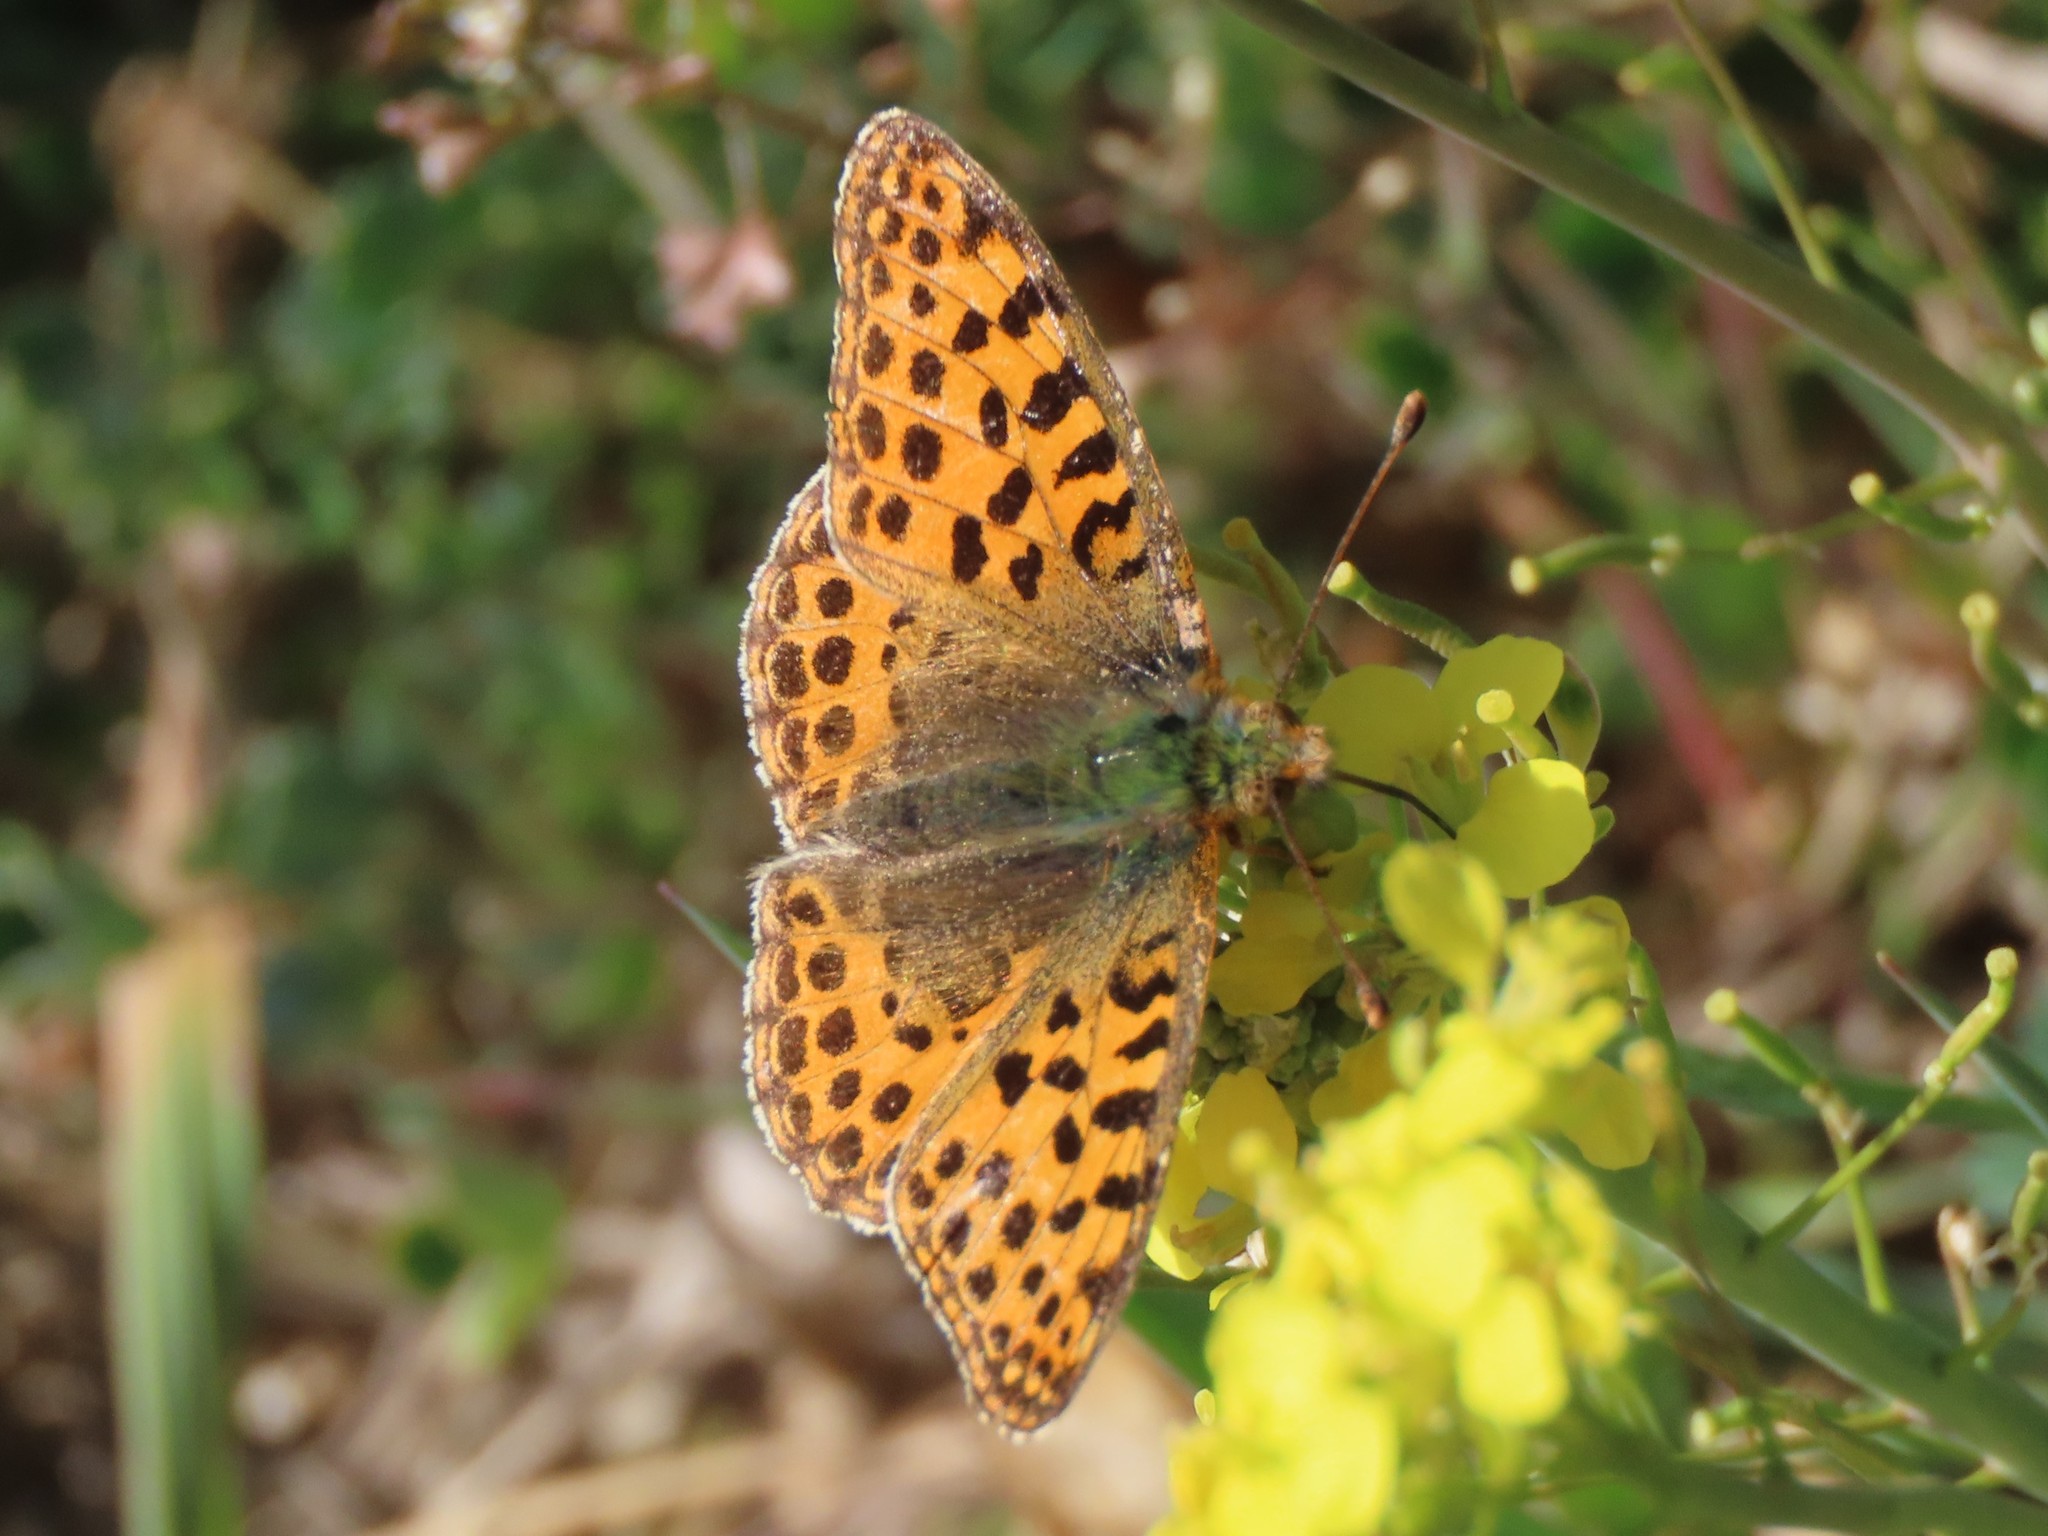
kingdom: Animalia
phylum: Arthropoda
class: Insecta
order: Lepidoptera
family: Nymphalidae
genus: Issoria
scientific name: Issoria lathonia
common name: Queen of spain fritillary
